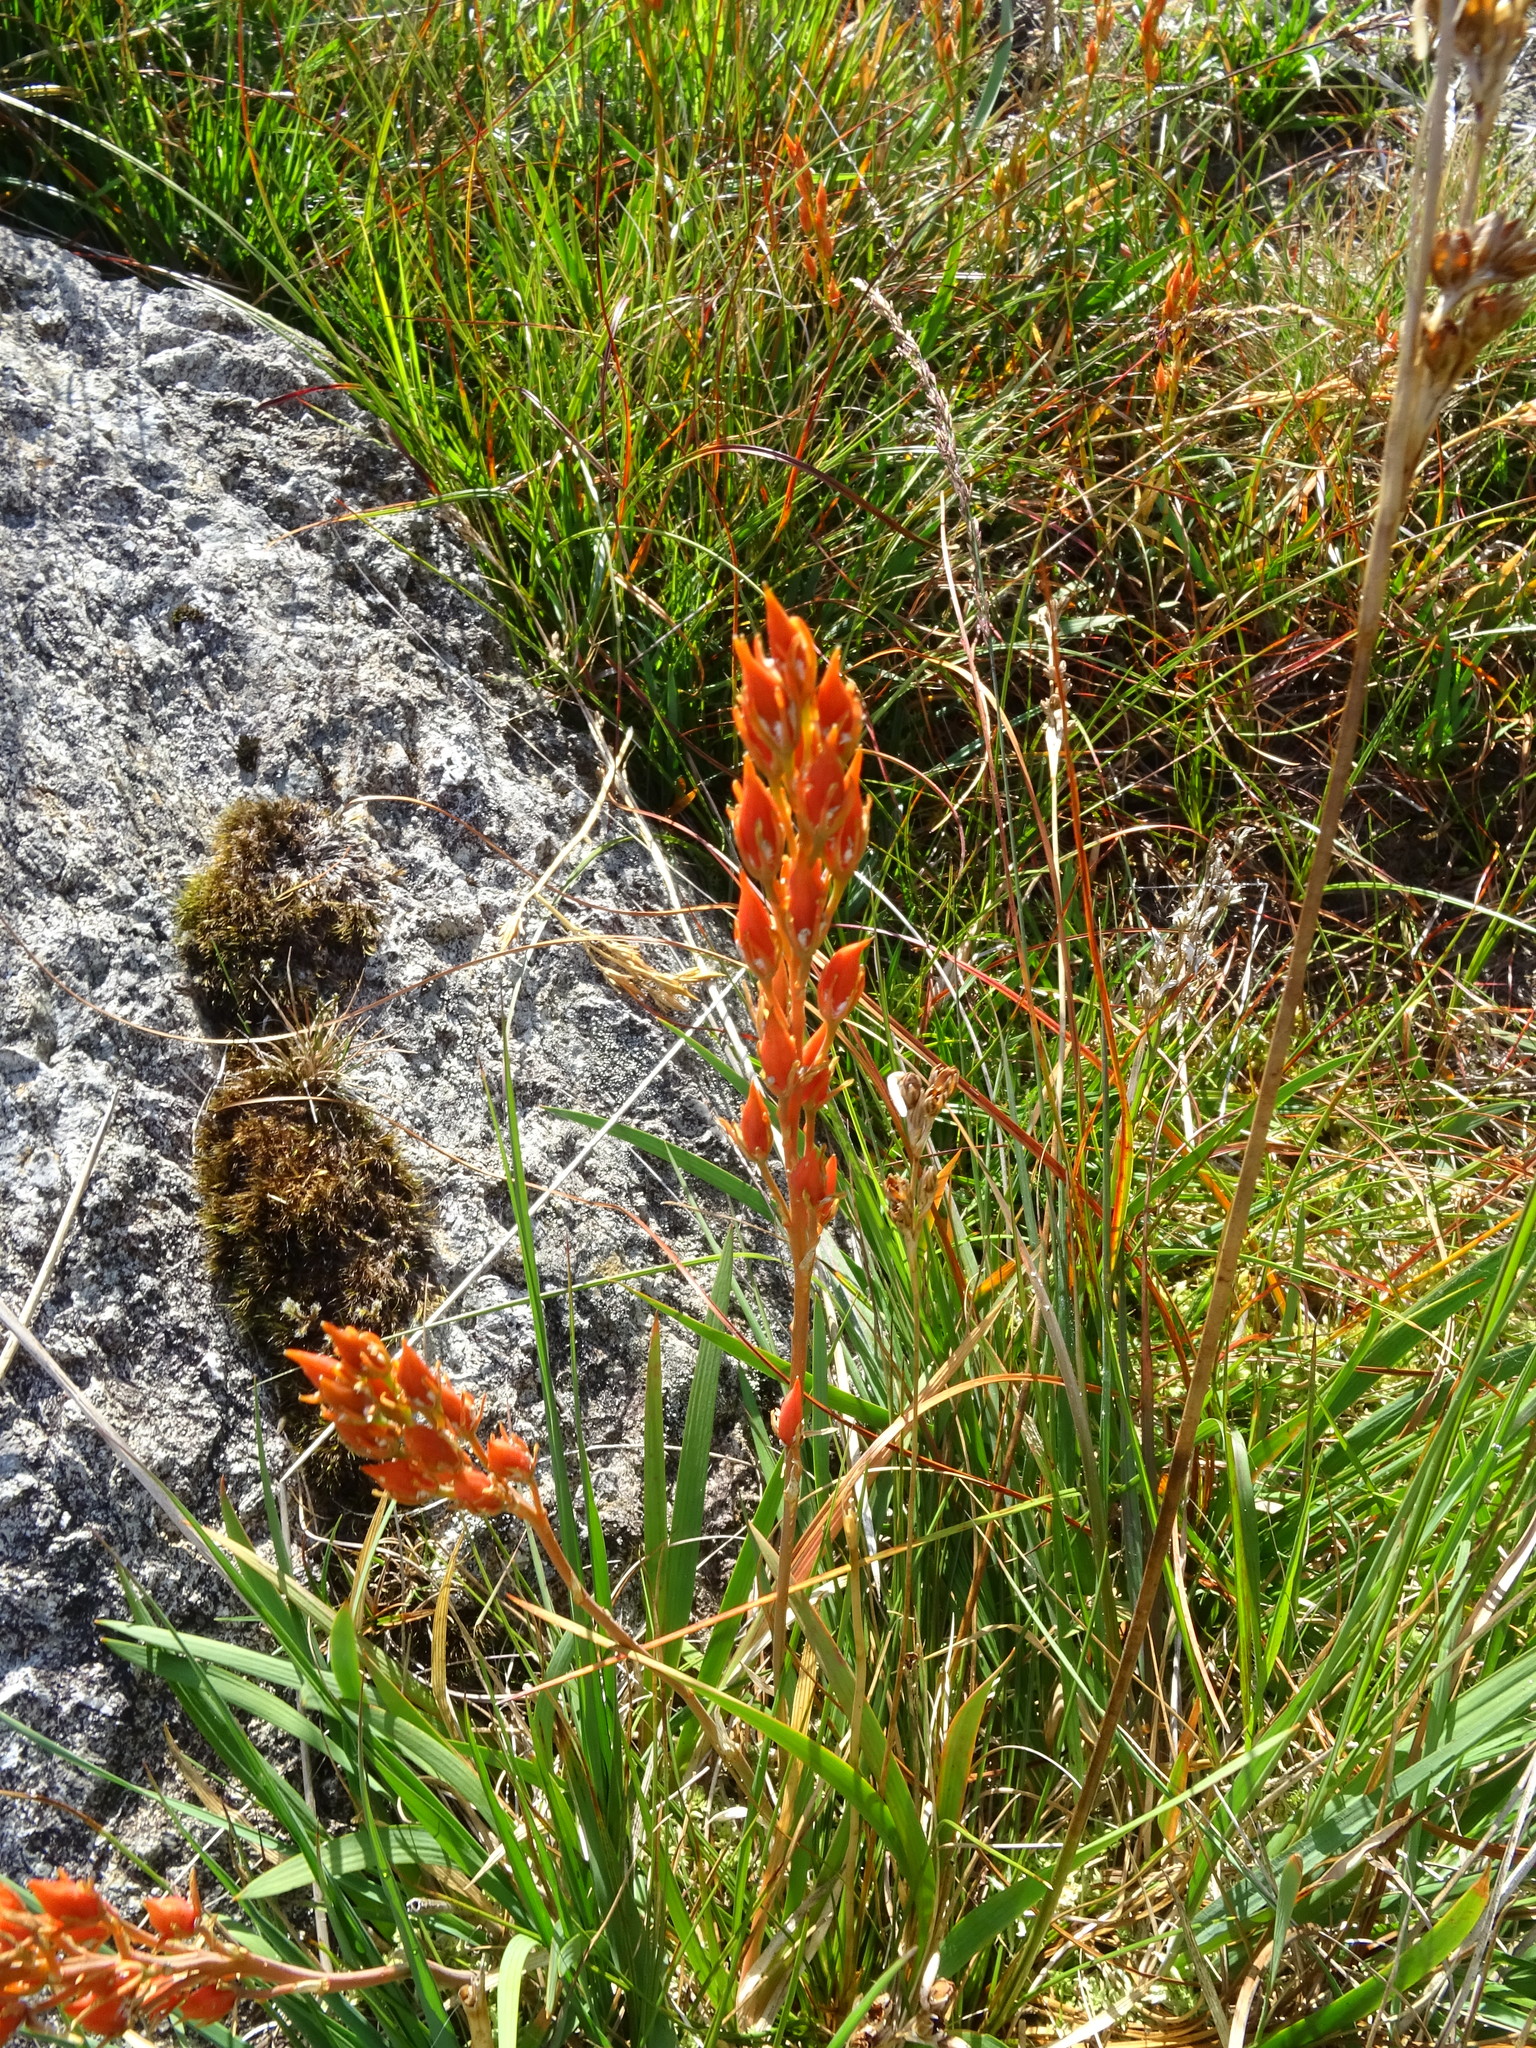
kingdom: Plantae
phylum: Tracheophyta
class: Liliopsida
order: Dioscoreales
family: Nartheciaceae
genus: Narthecium
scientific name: Narthecium ossifragum
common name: Bog asphodel
